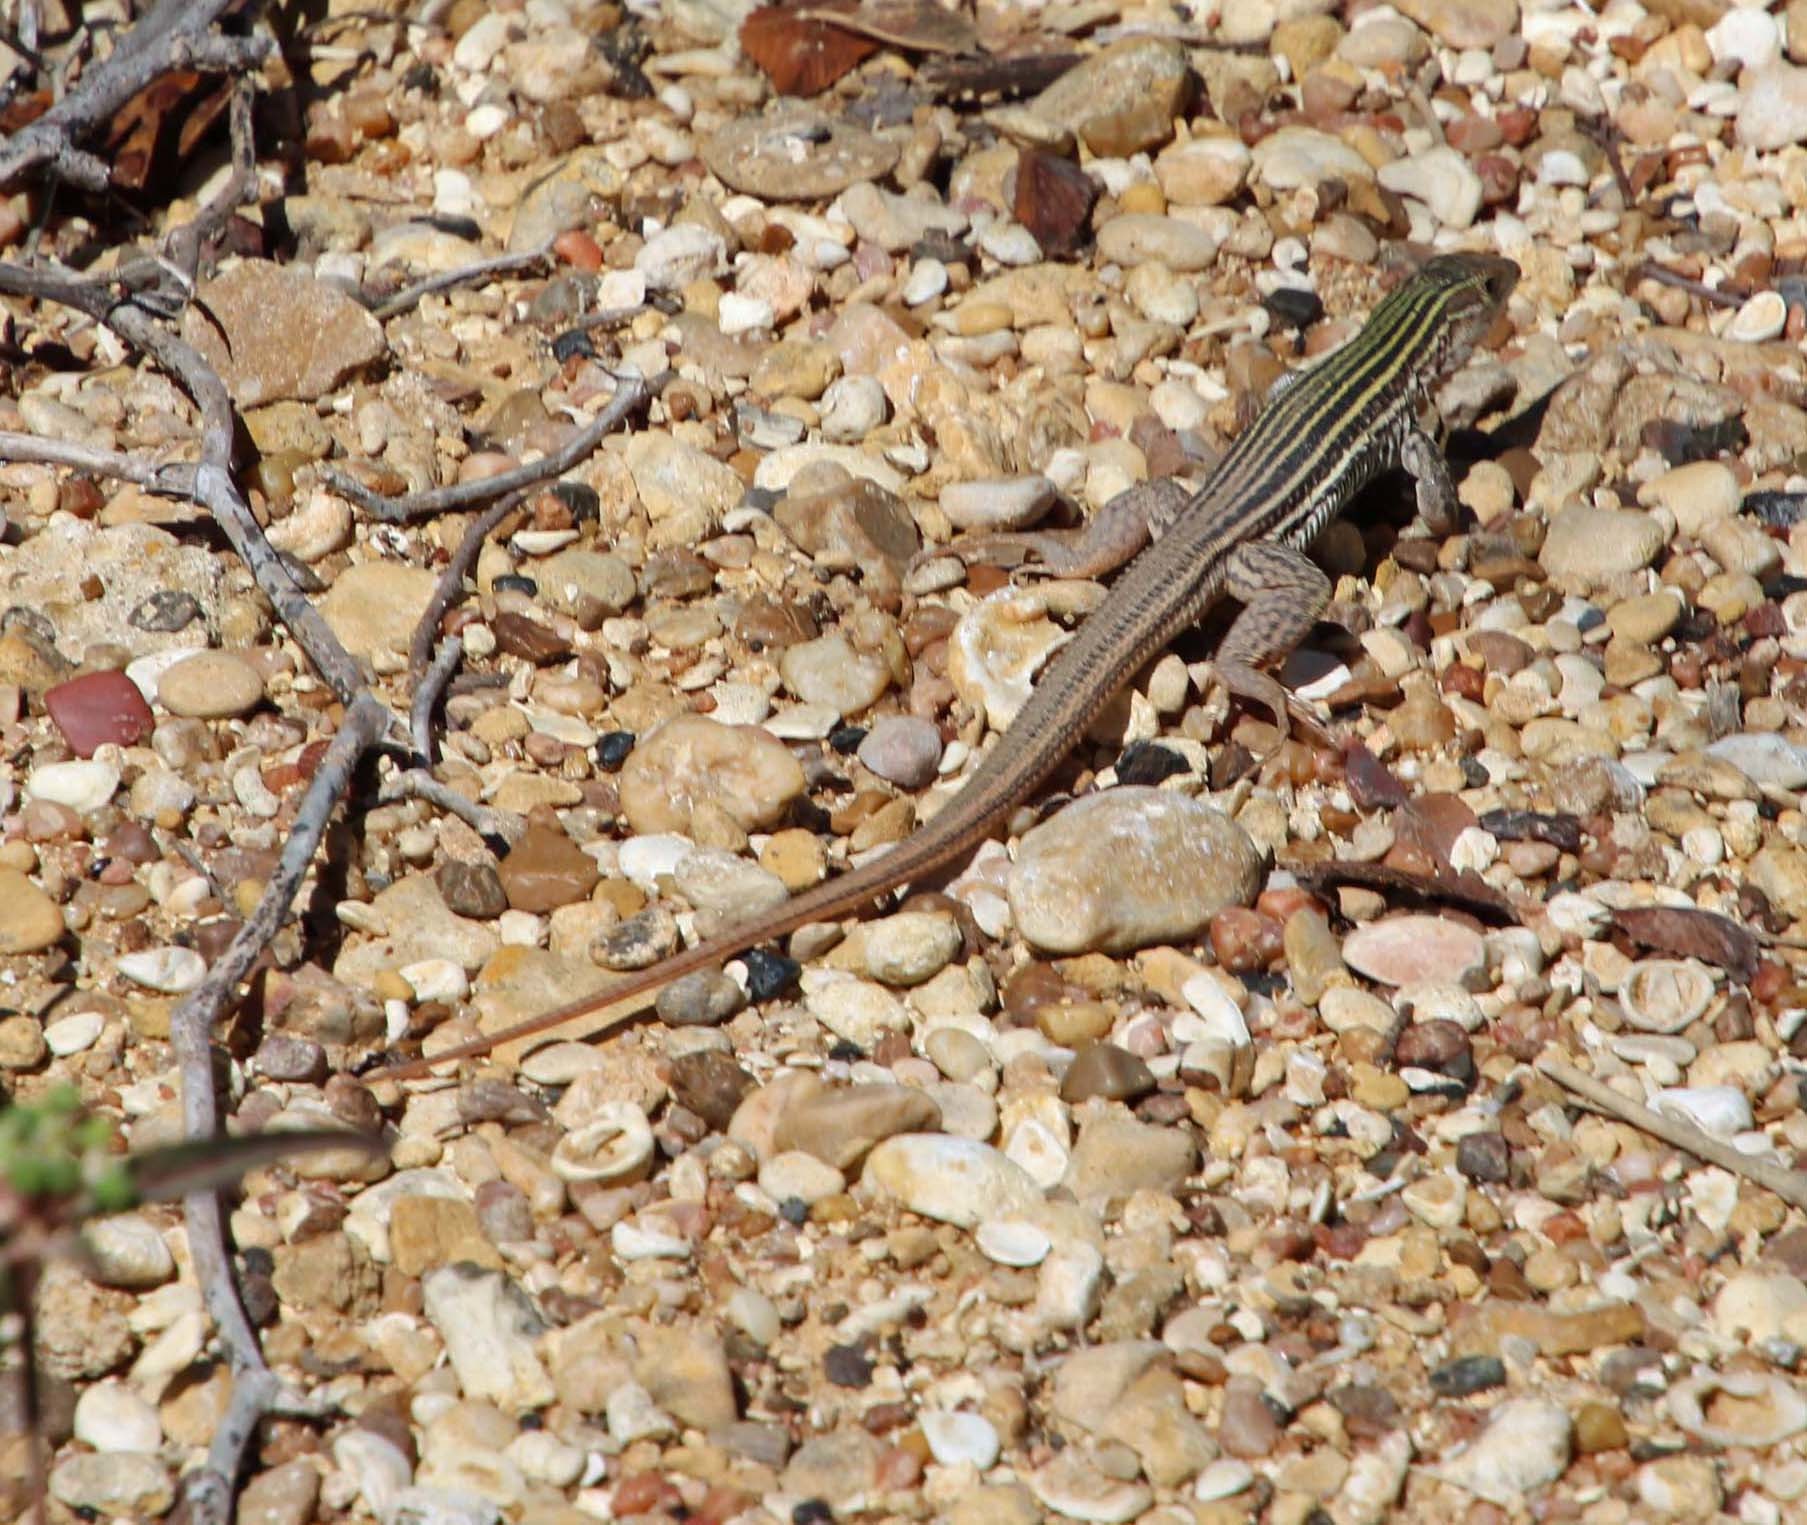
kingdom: Animalia
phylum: Chordata
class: Squamata
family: Teiidae
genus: Aspidoscelis
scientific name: Aspidoscelis gularis
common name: Eastern spotted whiptail
